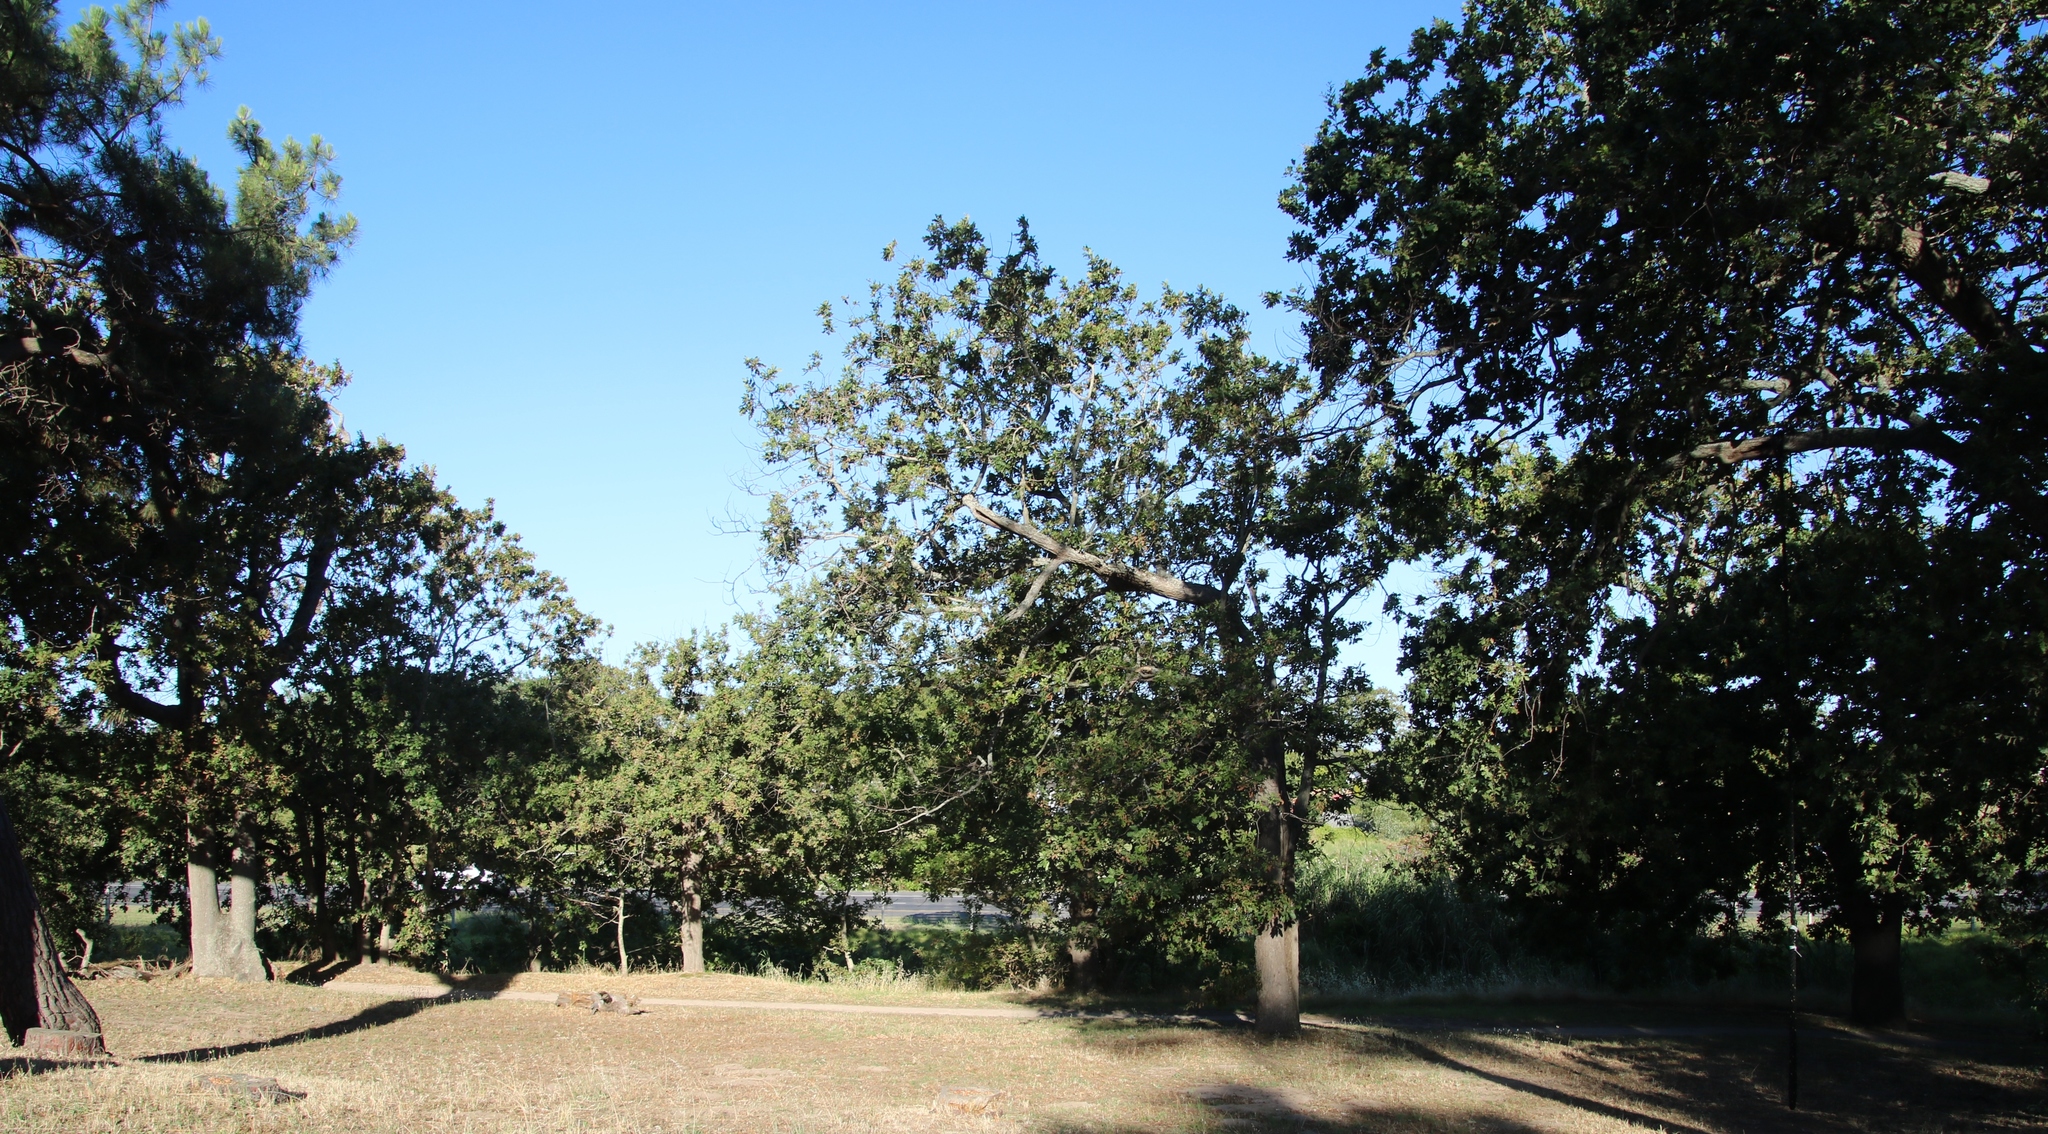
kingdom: Plantae
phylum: Tracheophyta
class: Magnoliopsida
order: Fagales
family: Fagaceae
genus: Quercus
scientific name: Quercus robur
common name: Pedunculate oak
